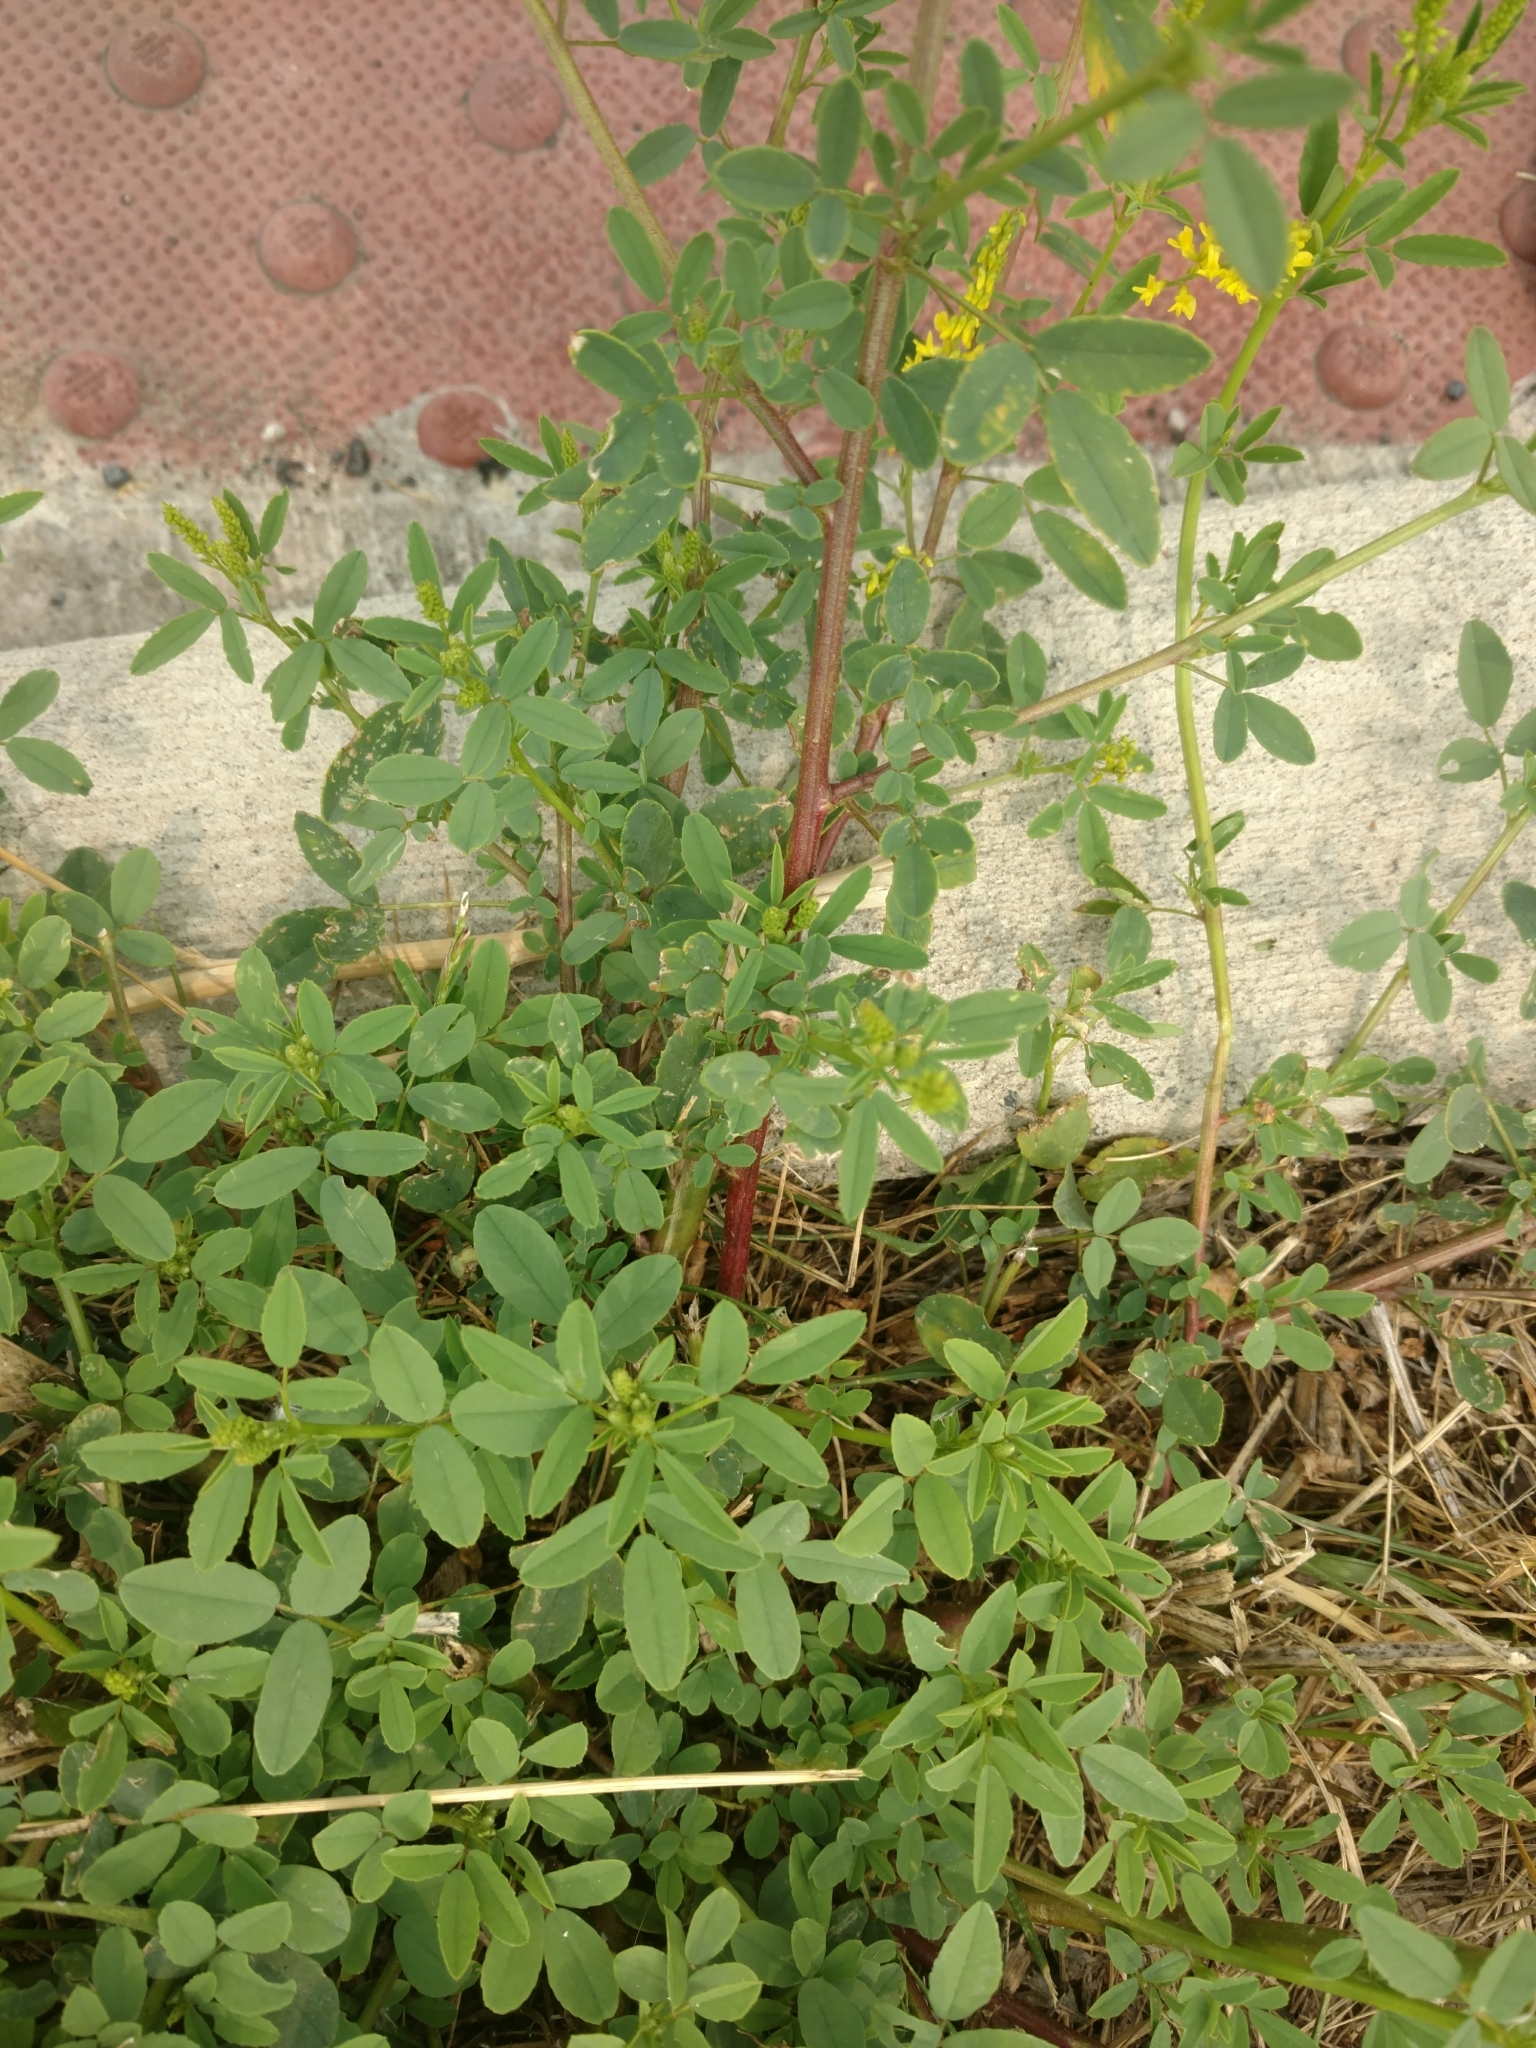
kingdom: Plantae
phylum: Tracheophyta
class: Magnoliopsida
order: Fabales
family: Fabaceae
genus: Melilotus
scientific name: Melilotus officinalis
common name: Sweetclover
